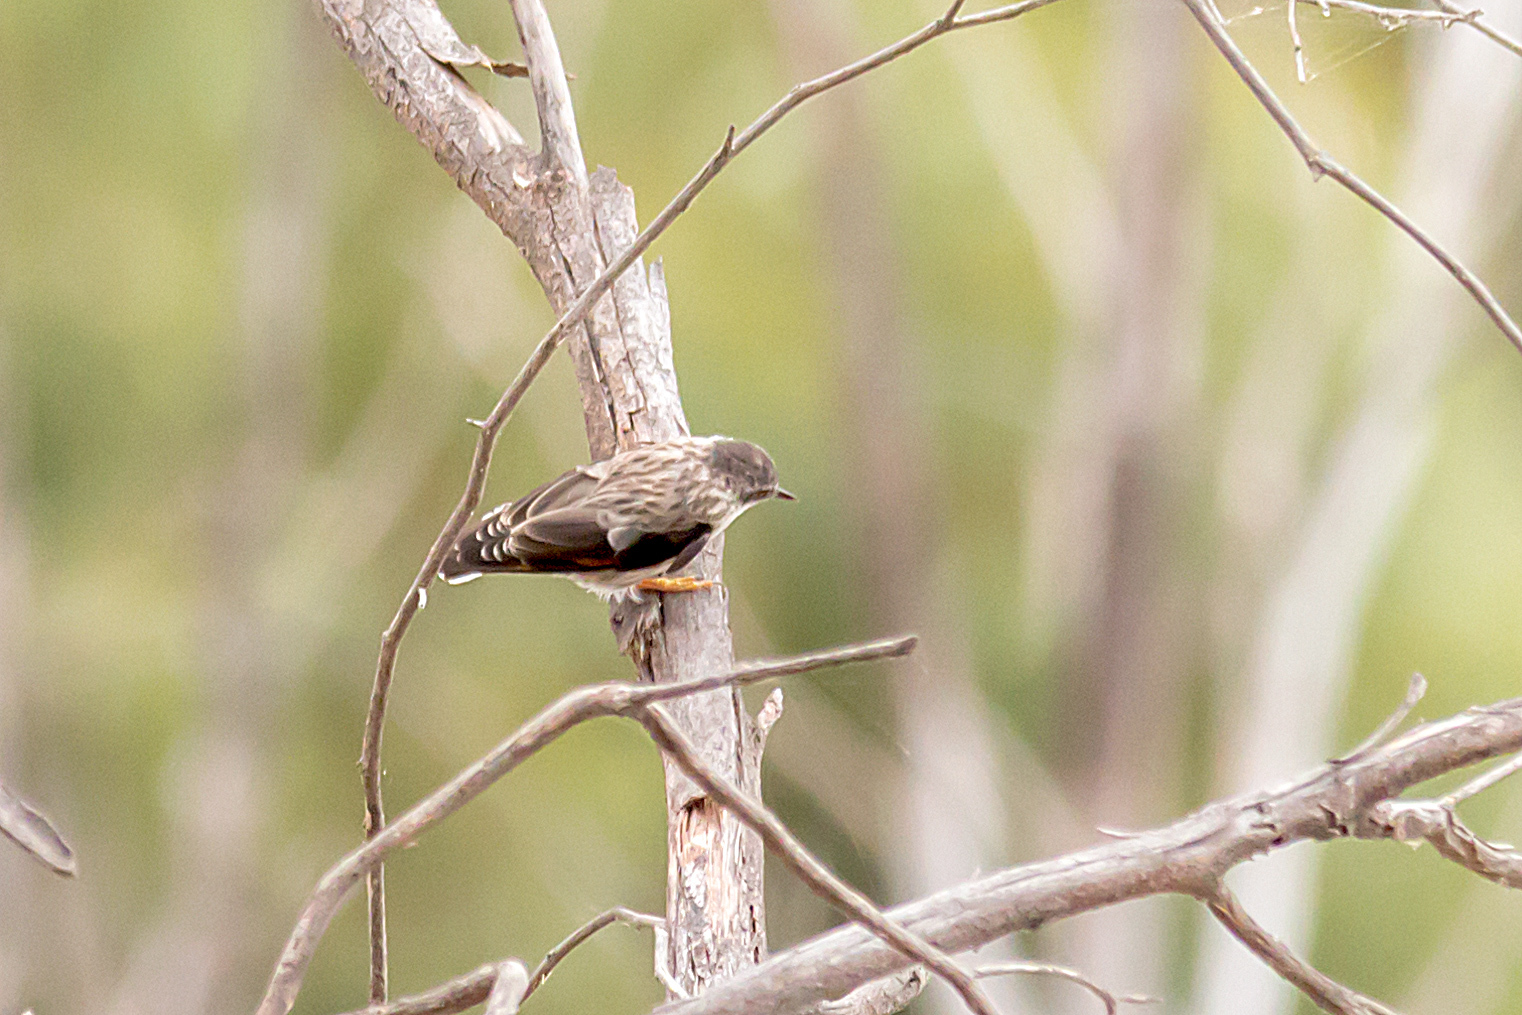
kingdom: Animalia
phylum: Chordata
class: Aves
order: Passeriformes
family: Neosittidae
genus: Daphoenositta
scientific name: Daphoenositta chrysoptera
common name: Varied sittella
